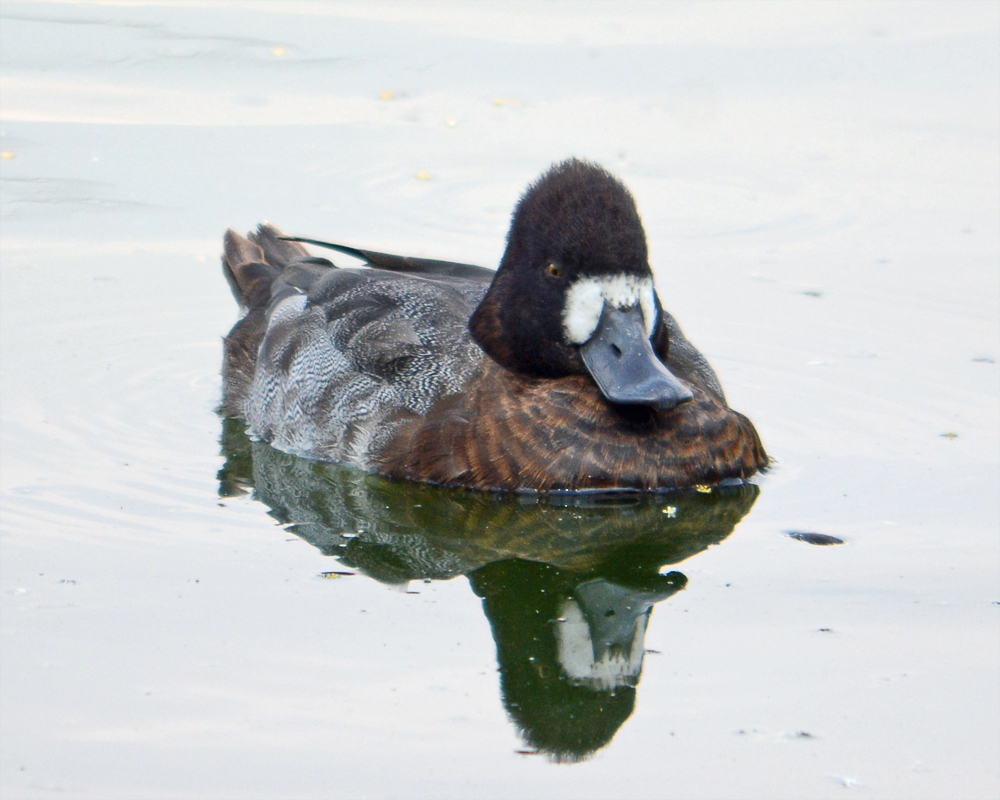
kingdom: Animalia
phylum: Chordata
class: Aves
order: Anseriformes
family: Anatidae
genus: Aythya
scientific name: Aythya affinis
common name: Lesser scaup
